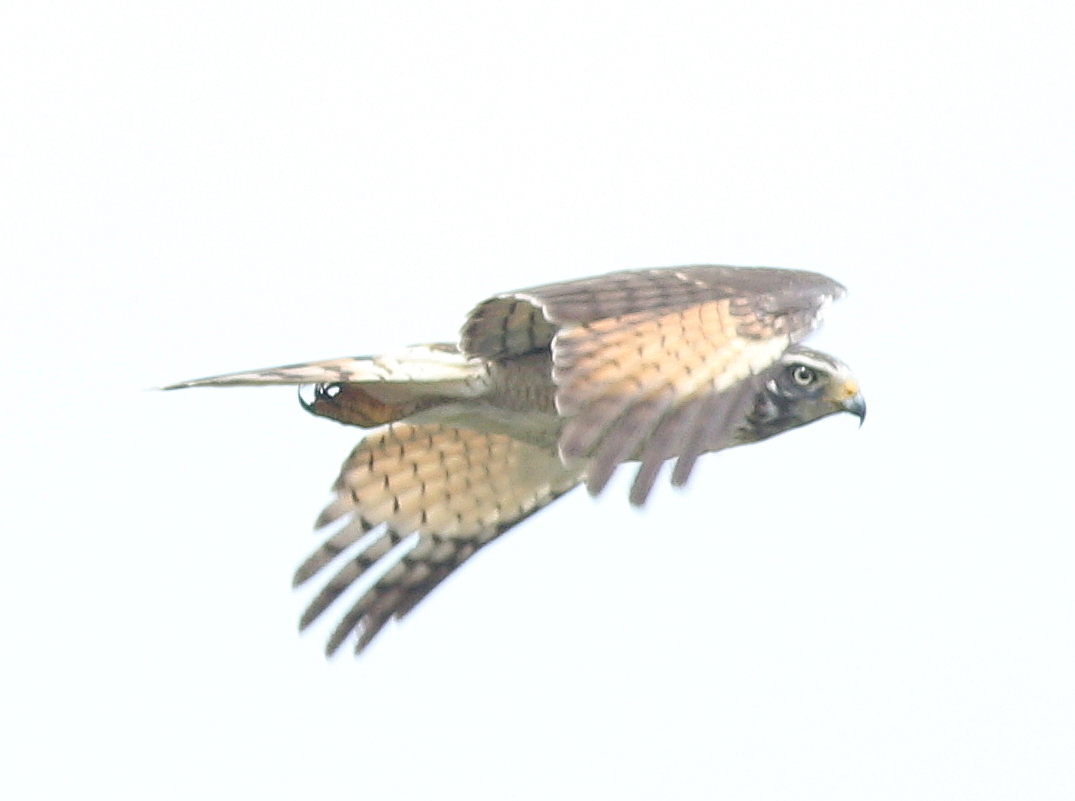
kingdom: Animalia
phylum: Chordata
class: Aves
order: Accipitriformes
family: Accipitridae
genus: Rupornis
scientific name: Rupornis magnirostris
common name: Roadside hawk
